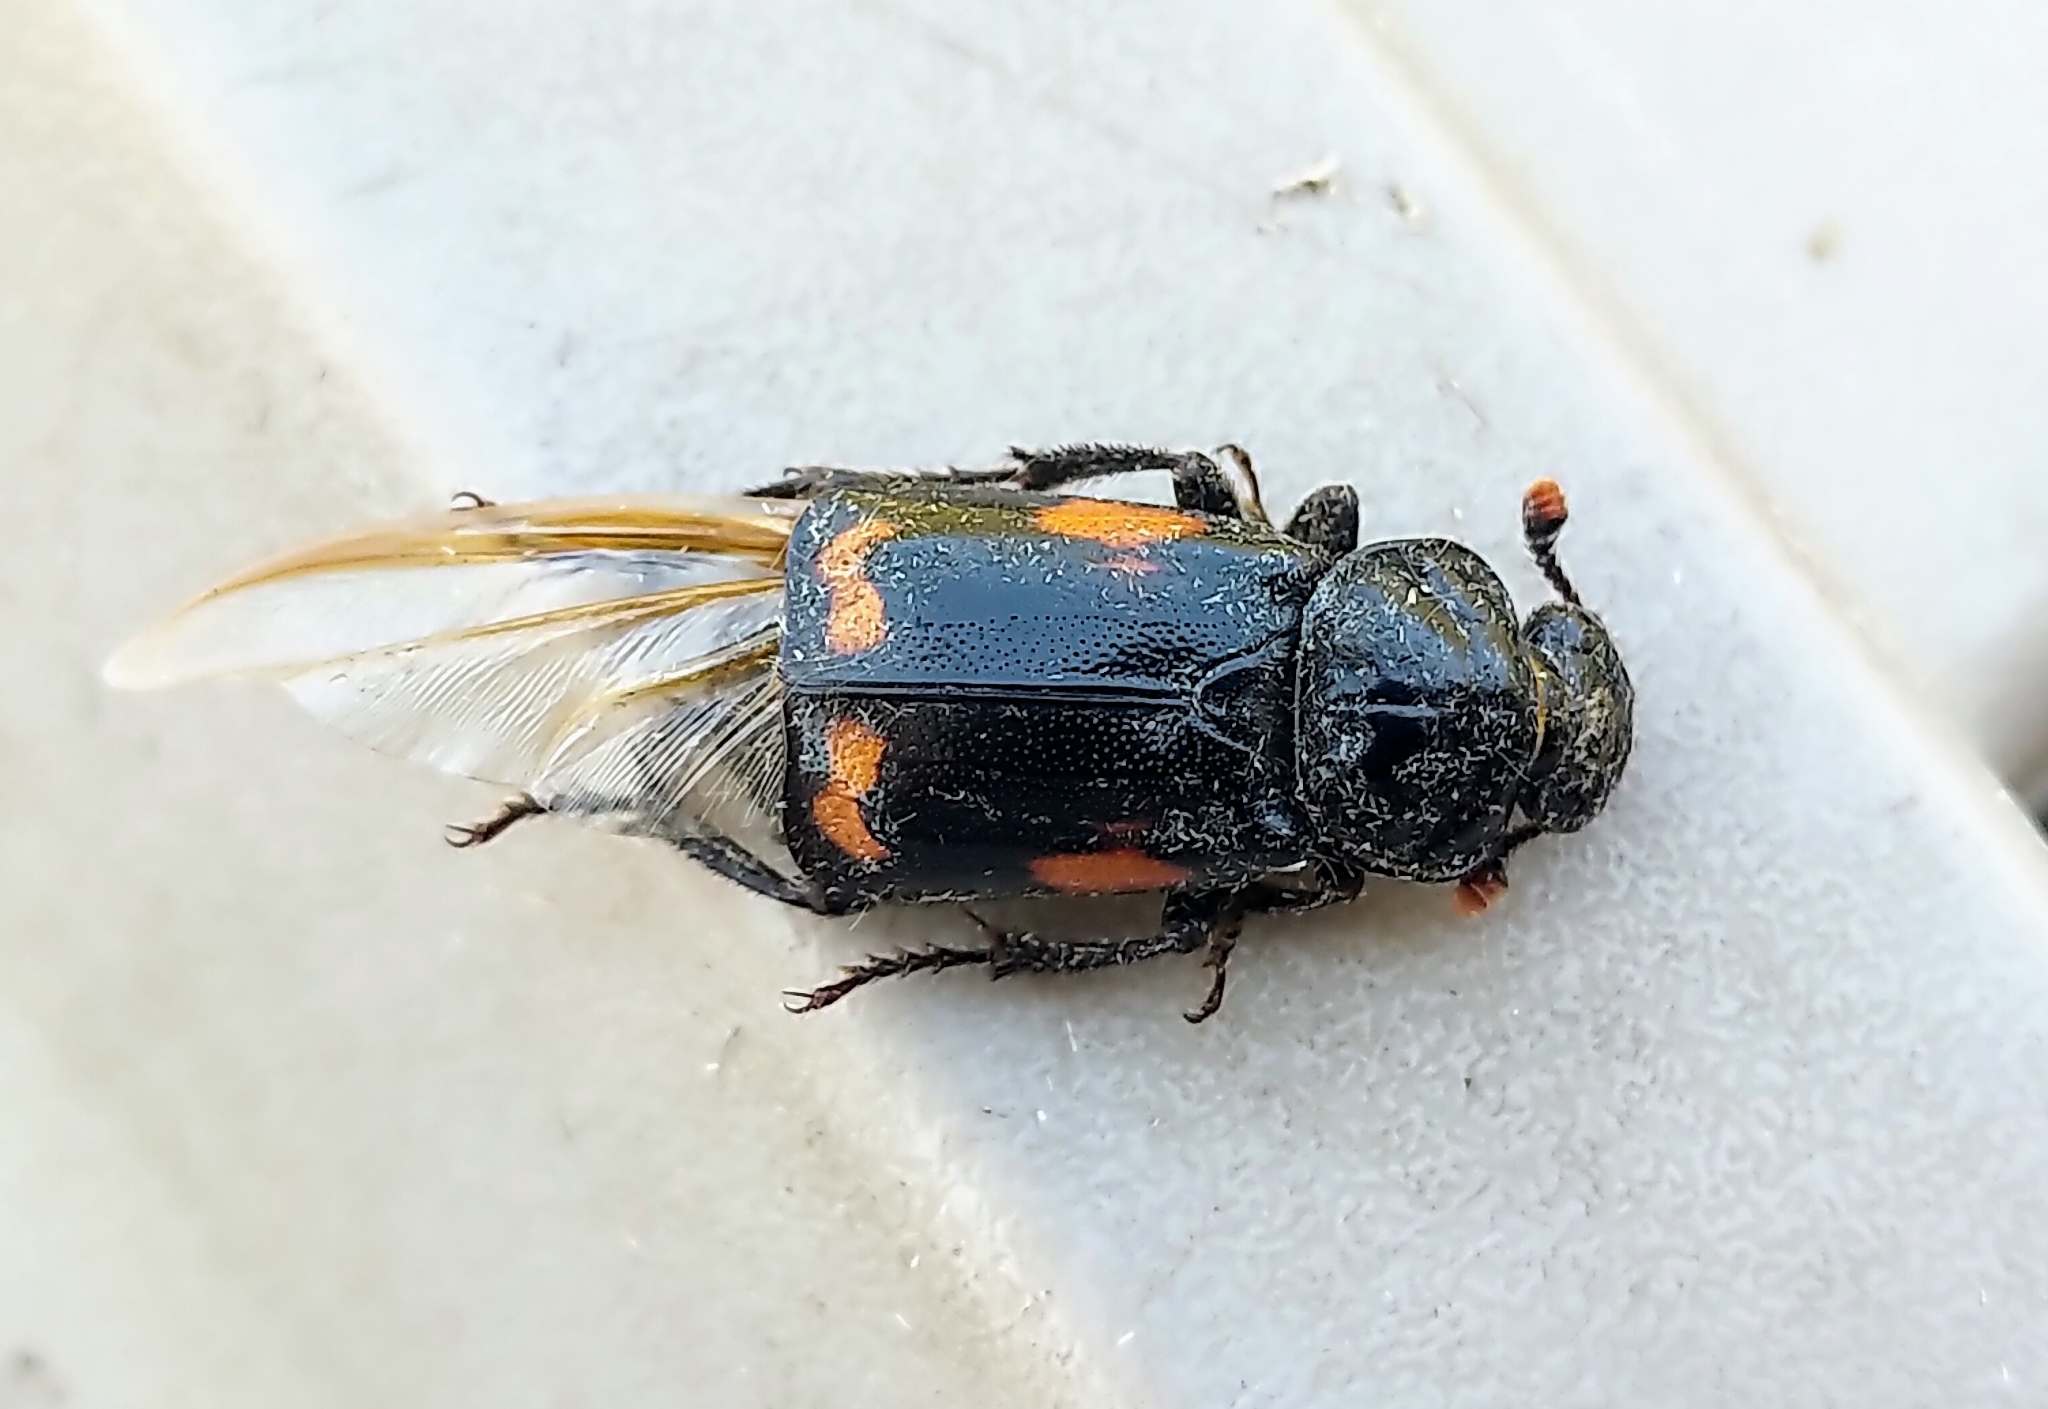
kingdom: Animalia
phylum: Arthropoda
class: Insecta
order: Coleoptera
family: Staphylinidae
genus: Nicrophorus
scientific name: Nicrophorus pustulatus
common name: Pustulated carrion beetle
